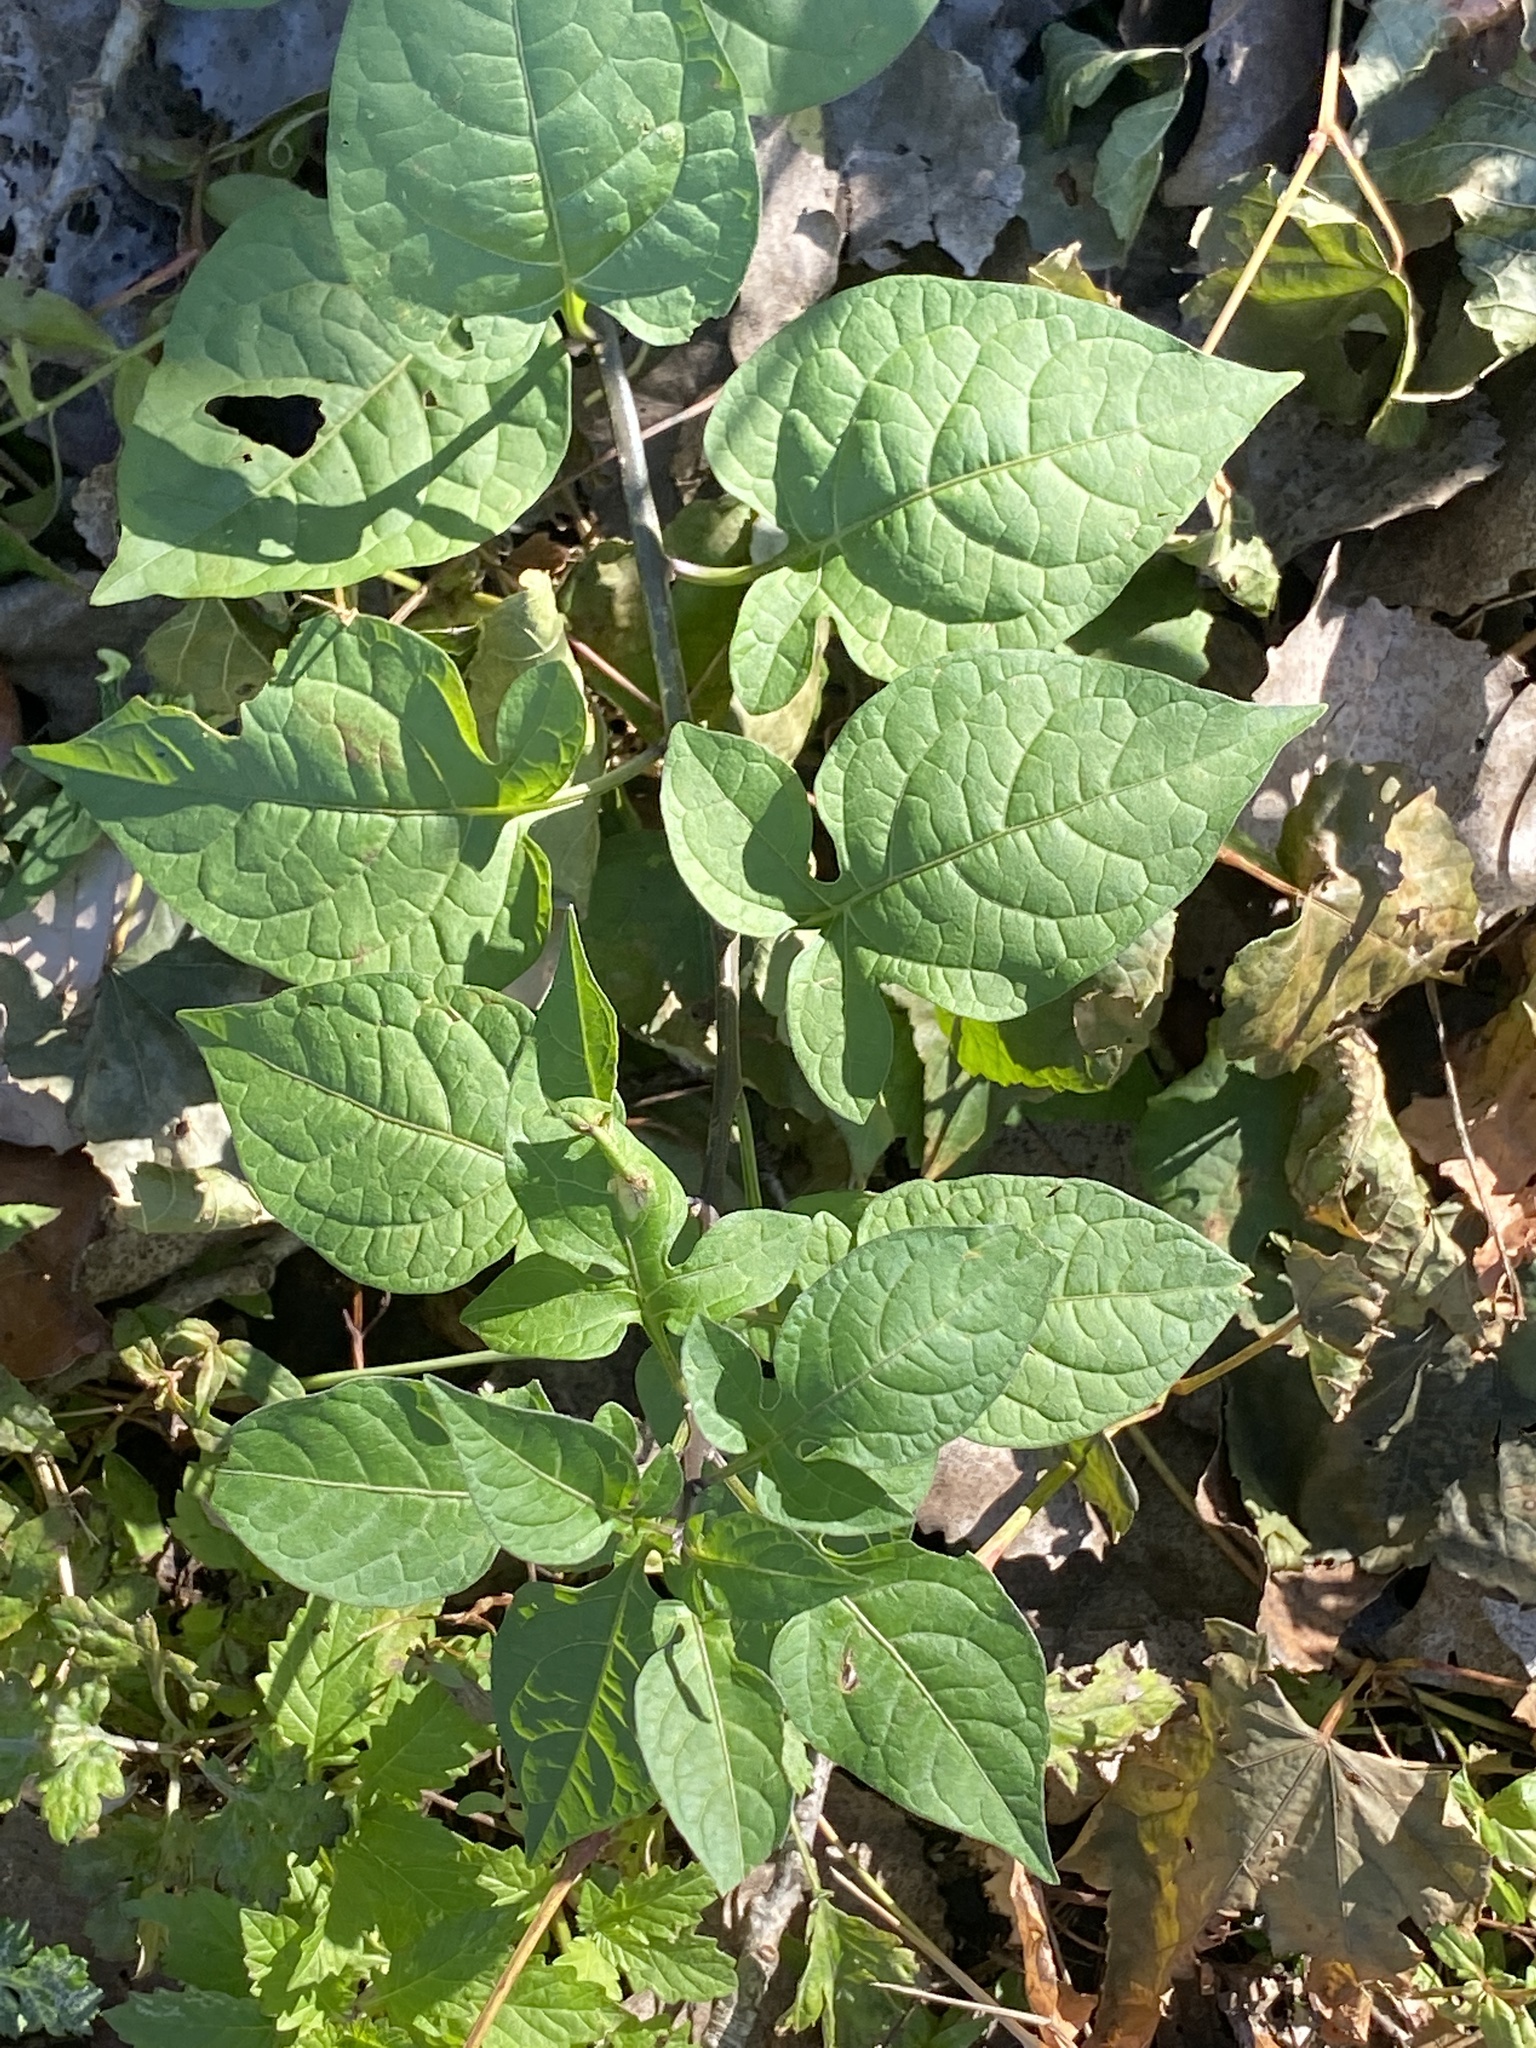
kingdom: Plantae
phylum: Tracheophyta
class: Magnoliopsida
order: Solanales
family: Solanaceae
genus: Solanum
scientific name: Solanum dulcamara
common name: Climbing nightshade
